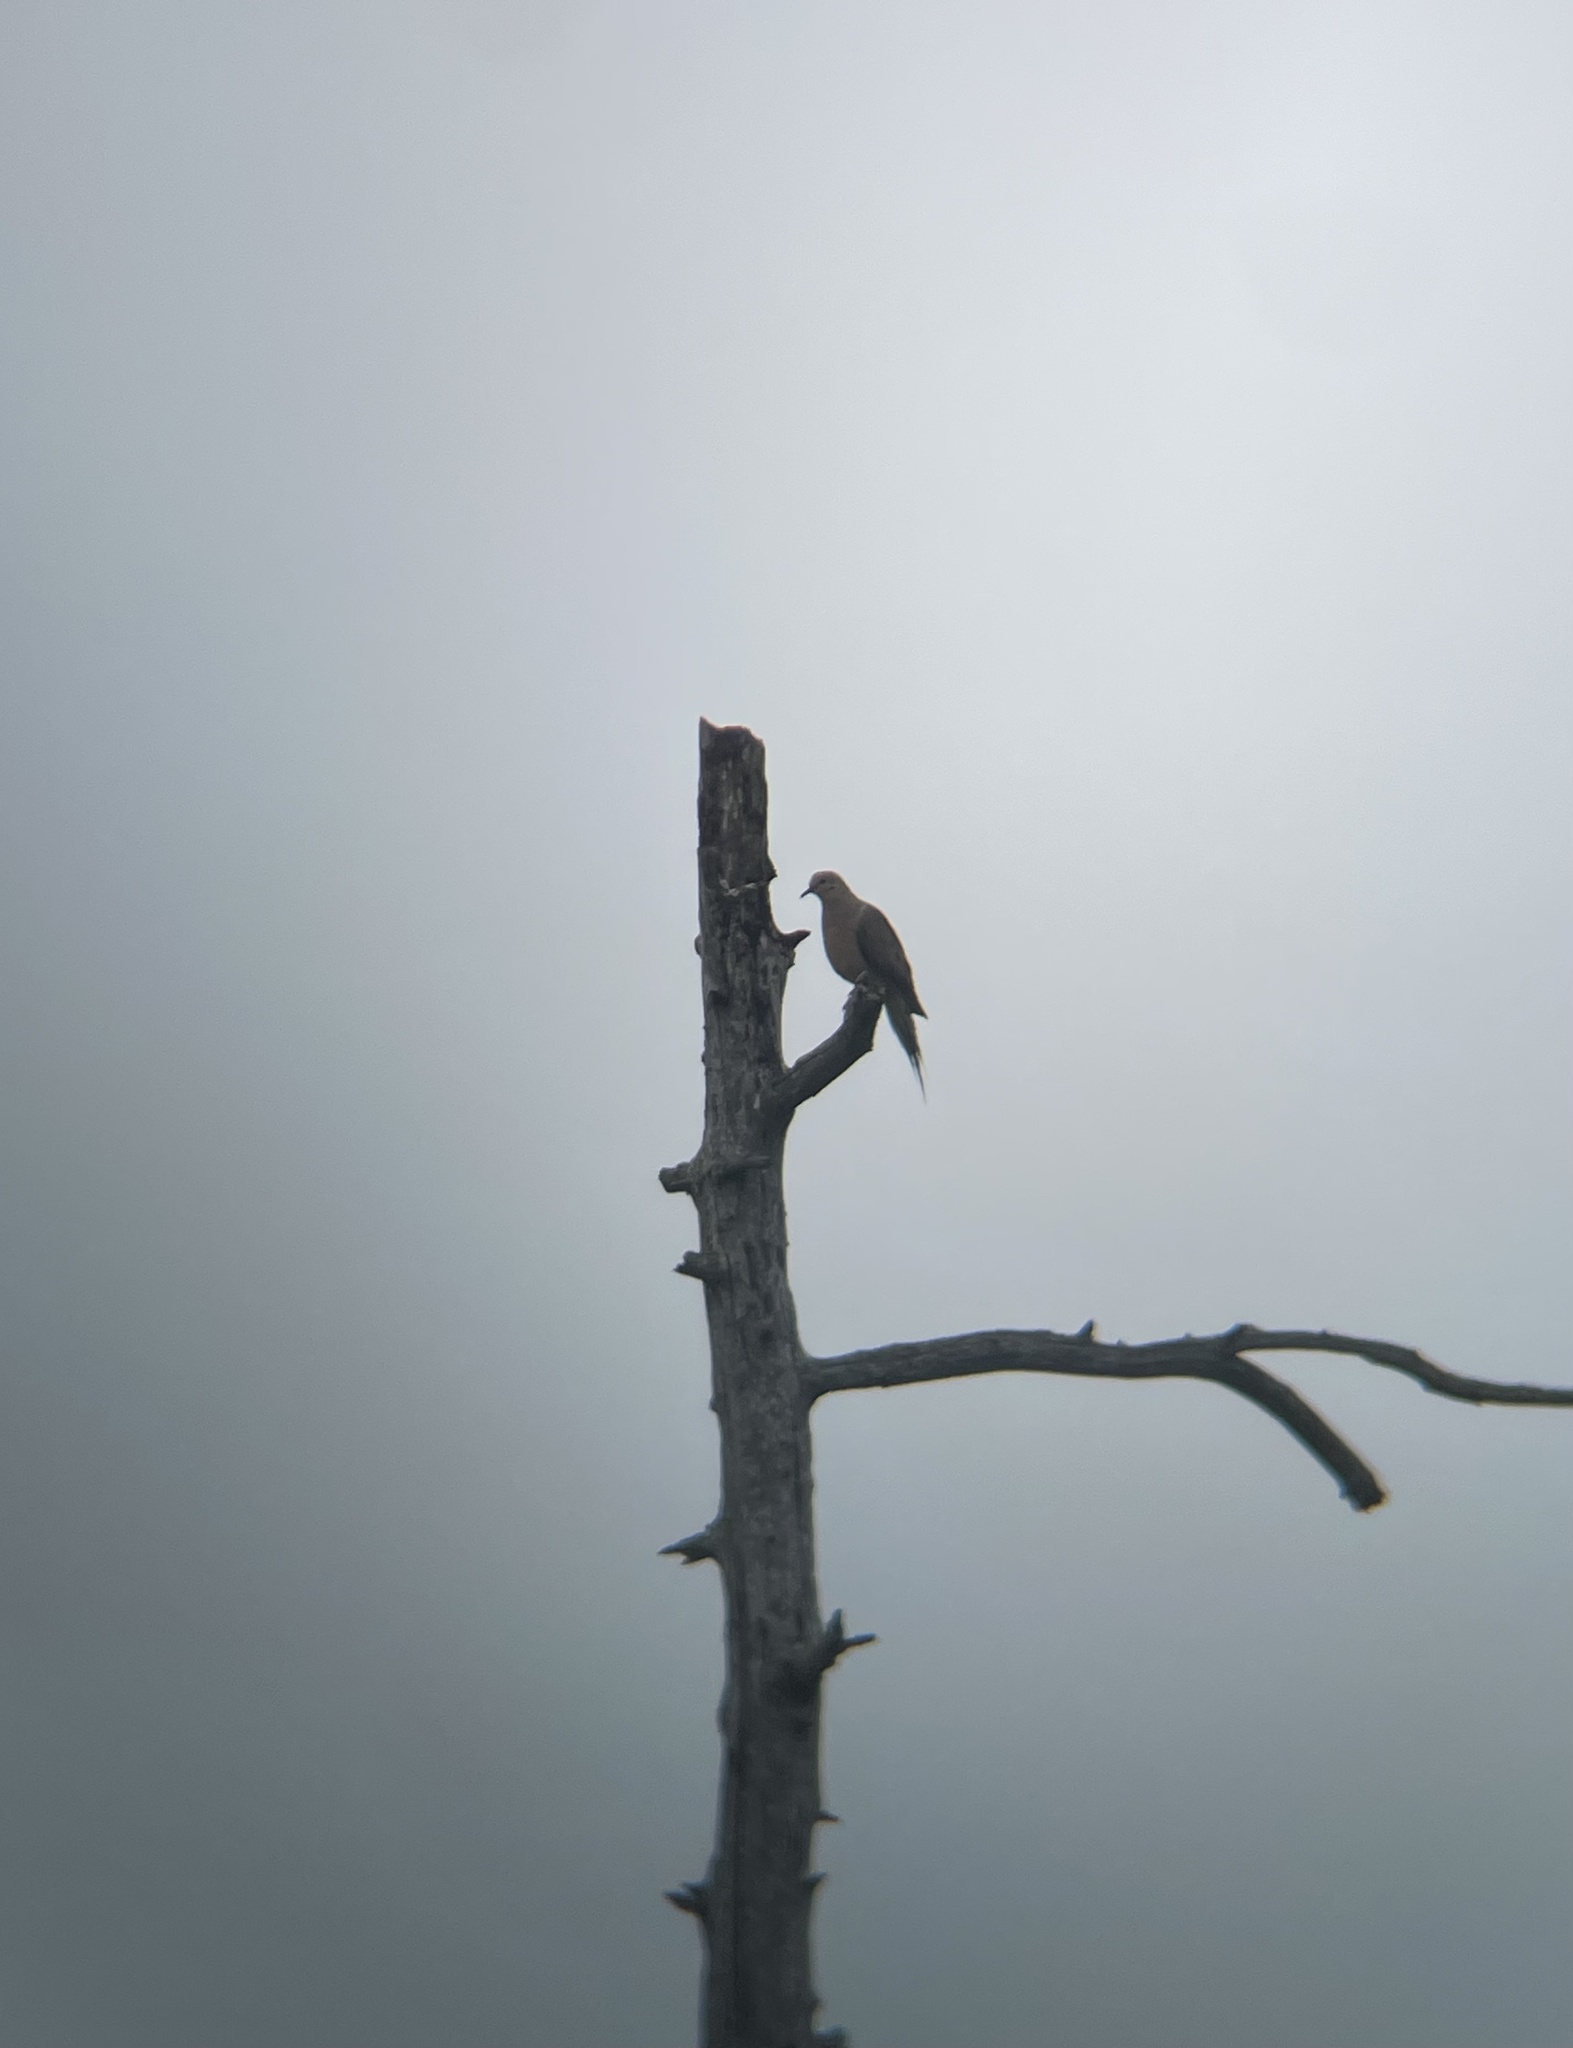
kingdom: Animalia
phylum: Chordata
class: Aves
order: Columbiformes
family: Columbidae
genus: Zenaida
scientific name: Zenaida macroura
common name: Mourning dove
